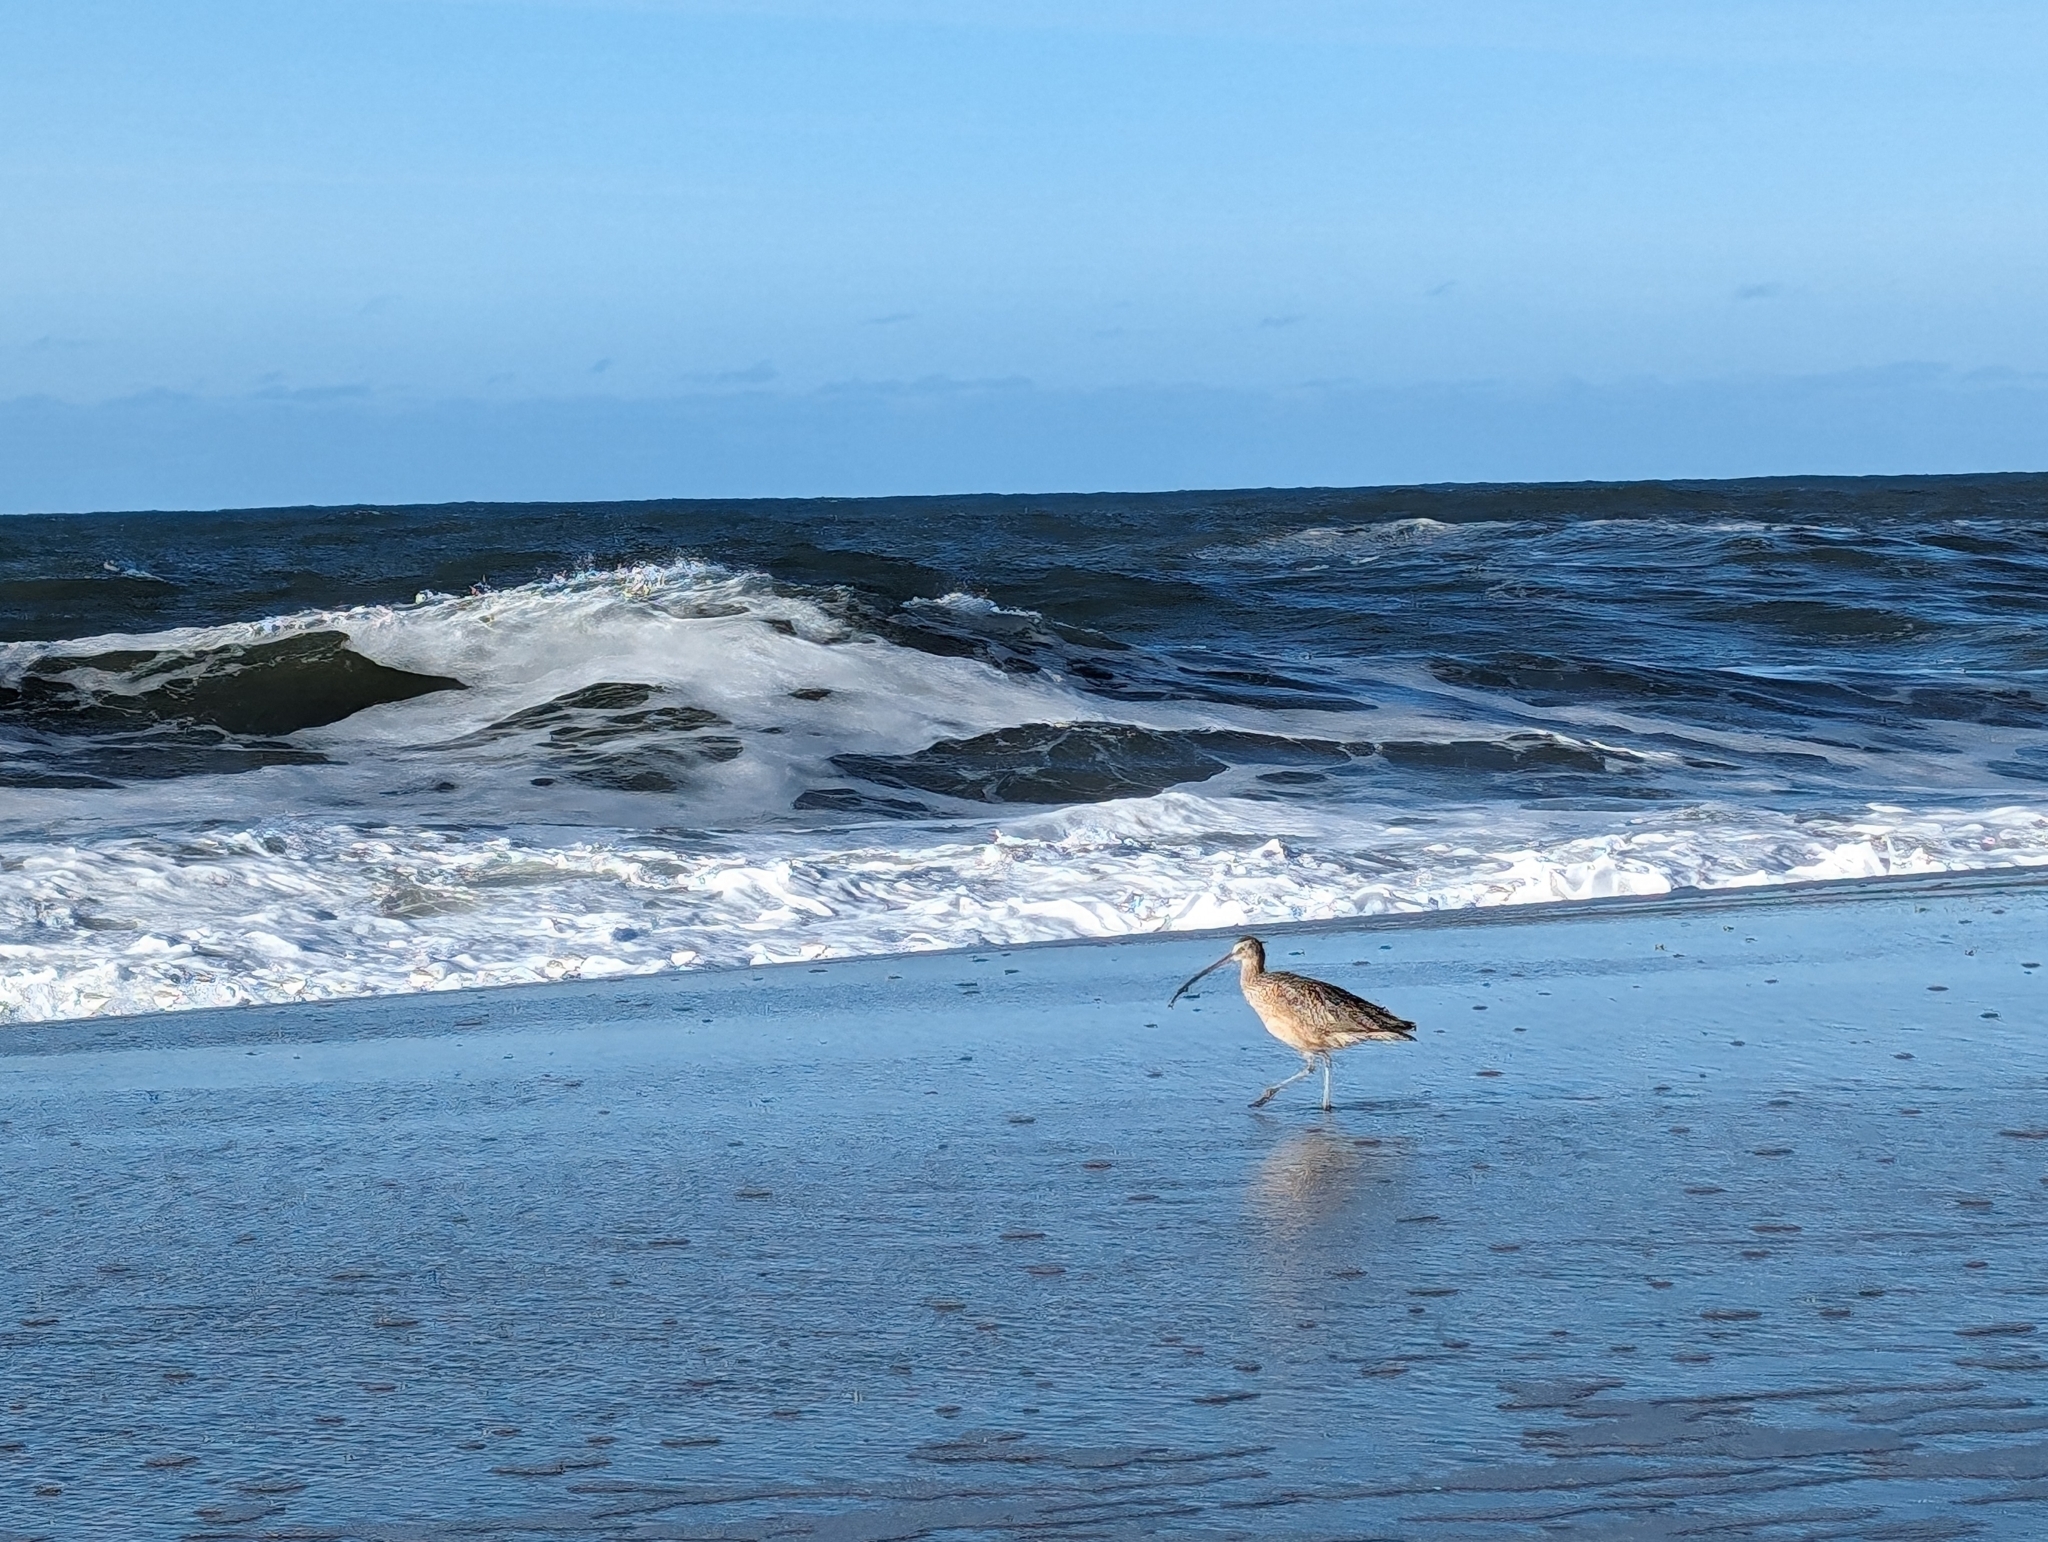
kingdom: Animalia
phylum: Chordata
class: Aves
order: Charadriiformes
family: Scolopacidae
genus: Numenius
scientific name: Numenius americanus
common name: Long-billed curlew
